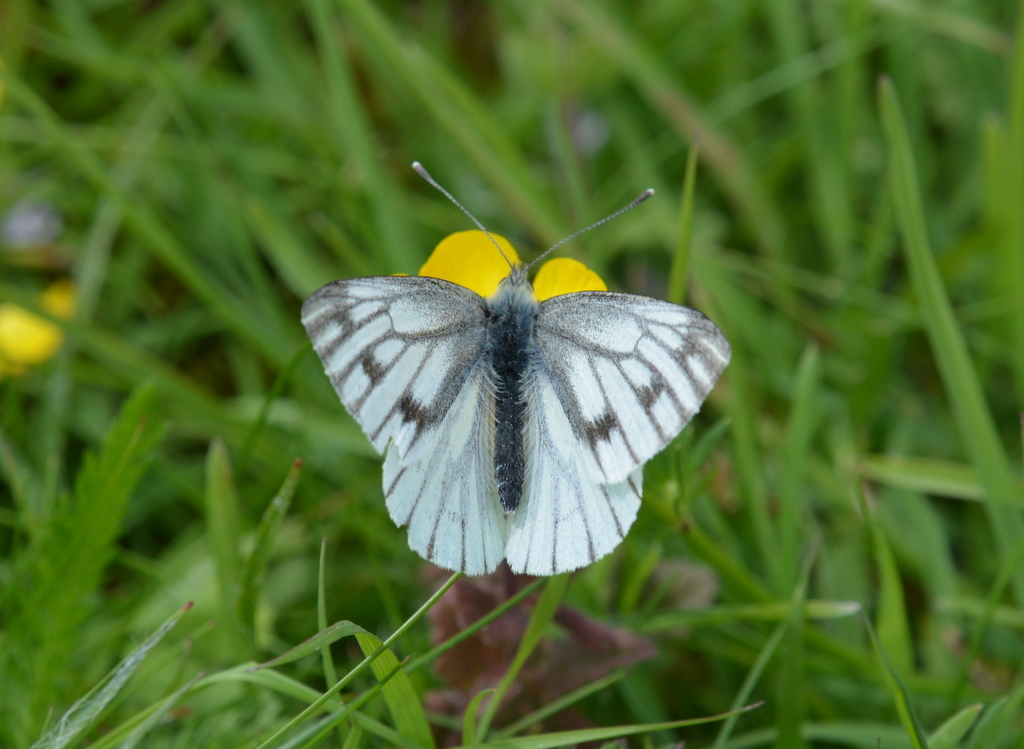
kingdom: Animalia
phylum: Arthropoda
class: Insecta
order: Lepidoptera
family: Pieridae
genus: Pieris
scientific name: Pieris napi
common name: Green-veined white
